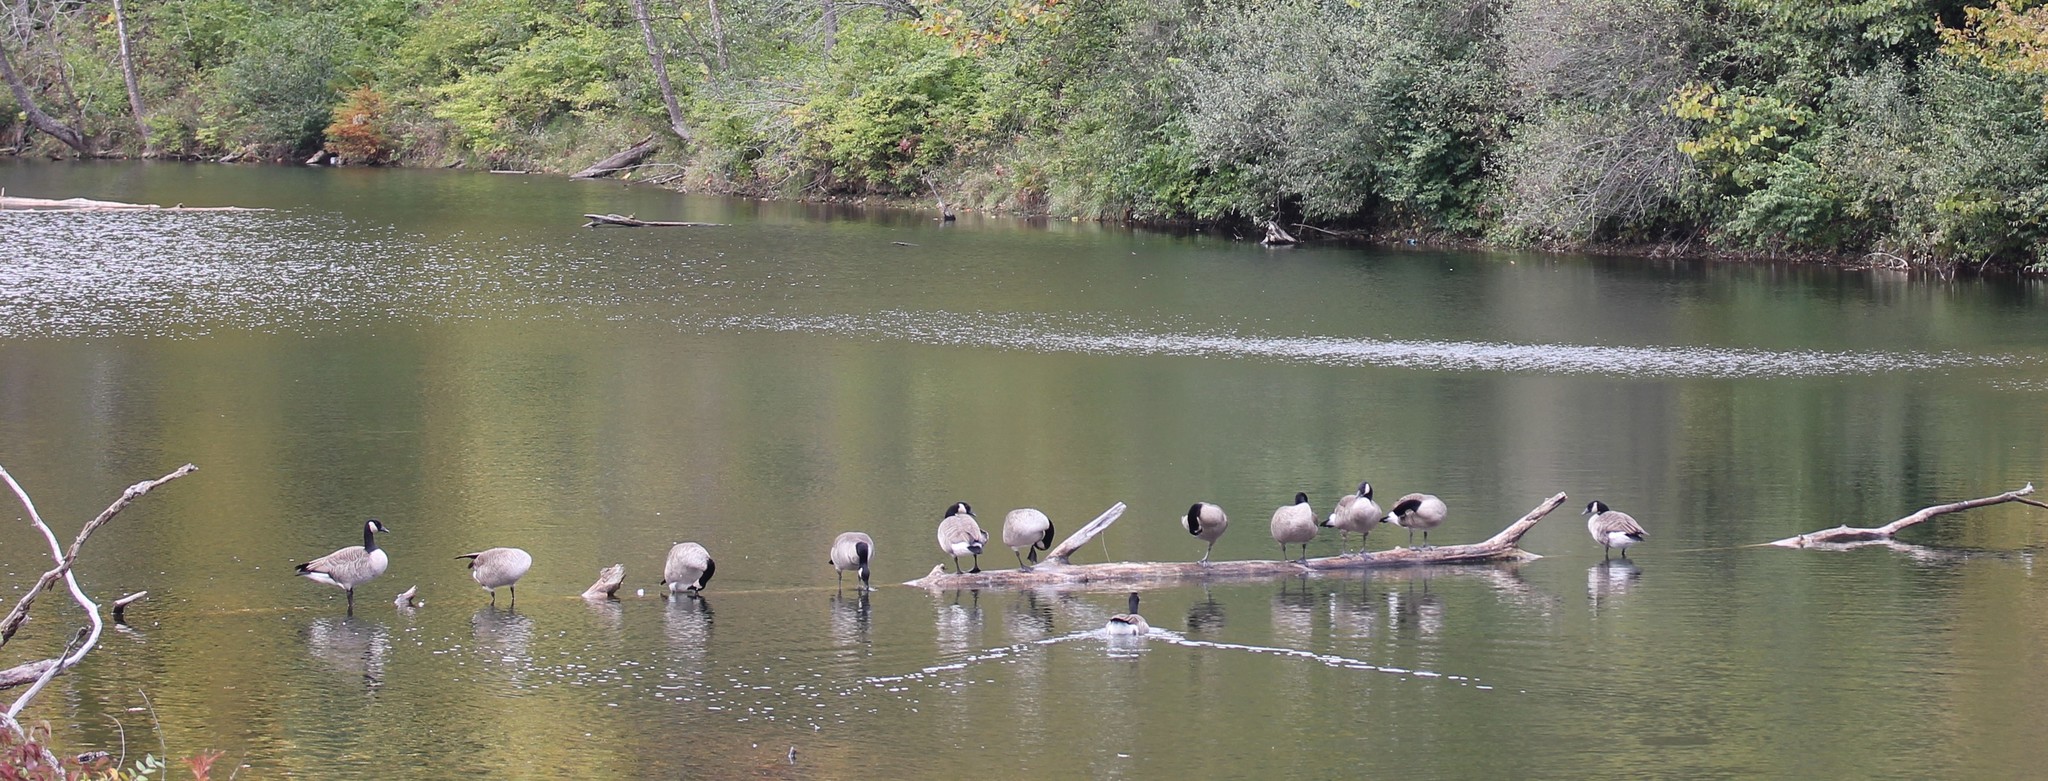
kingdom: Animalia
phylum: Chordata
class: Aves
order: Anseriformes
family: Anatidae
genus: Branta
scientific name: Branta canadensis
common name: Canada goose
